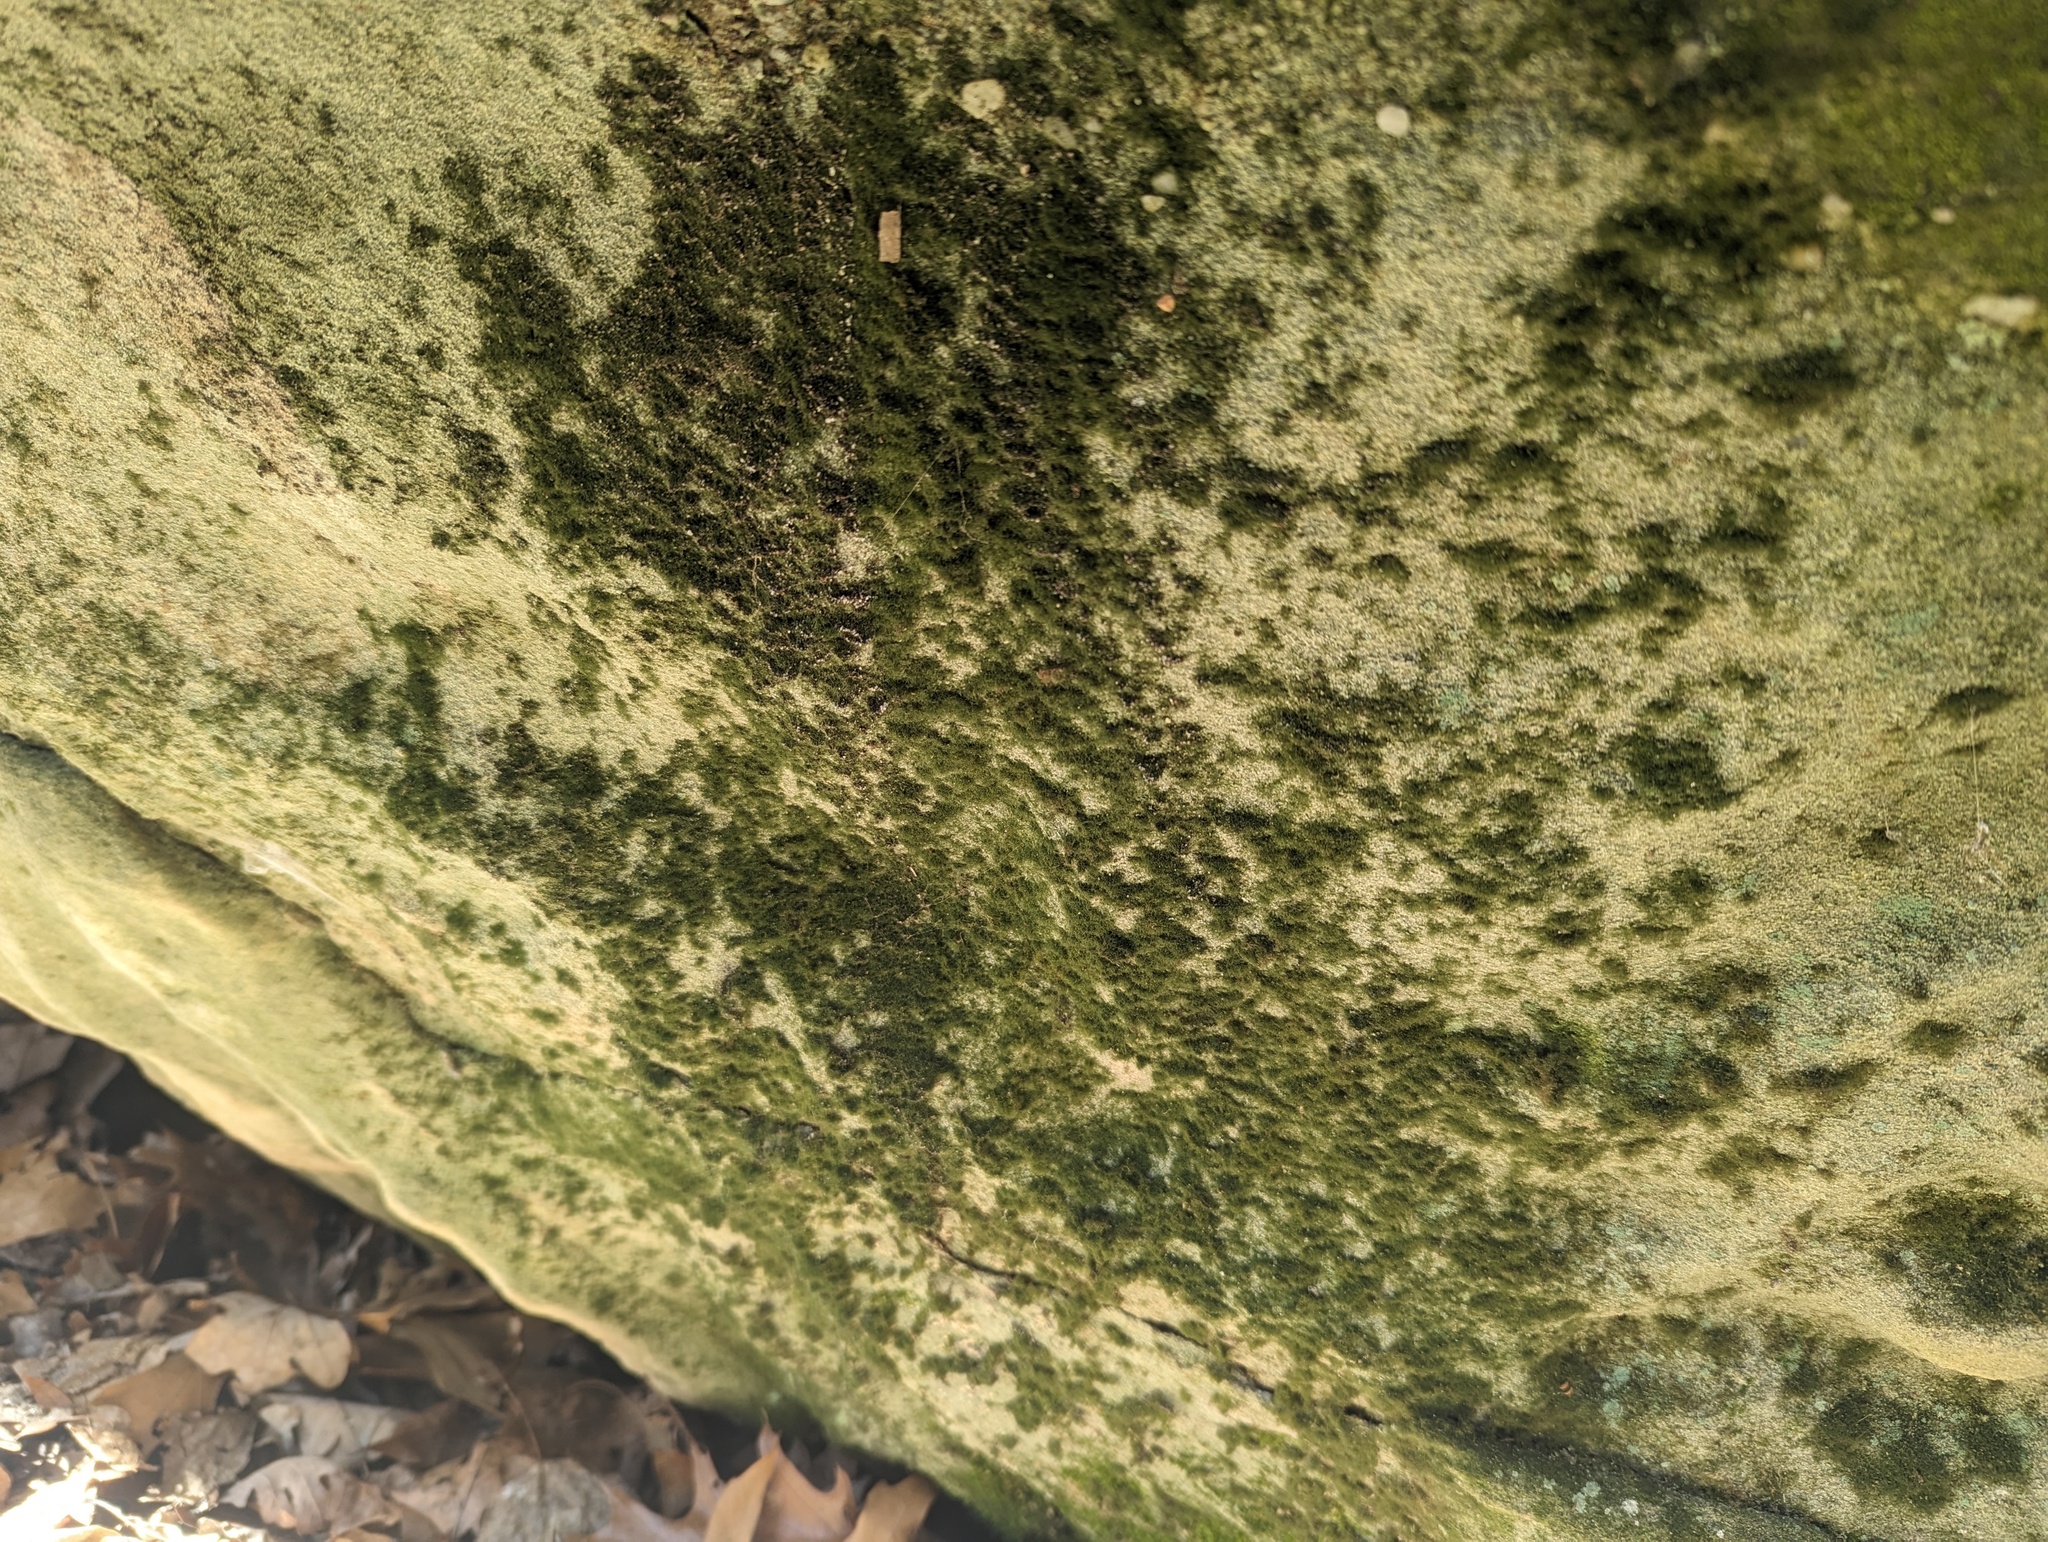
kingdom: Plantae
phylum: Tracheophyta
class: Polypodiopsida
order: Hymenophyllales
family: Hymenophyllaceae
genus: Crepidomanes
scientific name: Crepidomanes intricatum
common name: Weft fern
